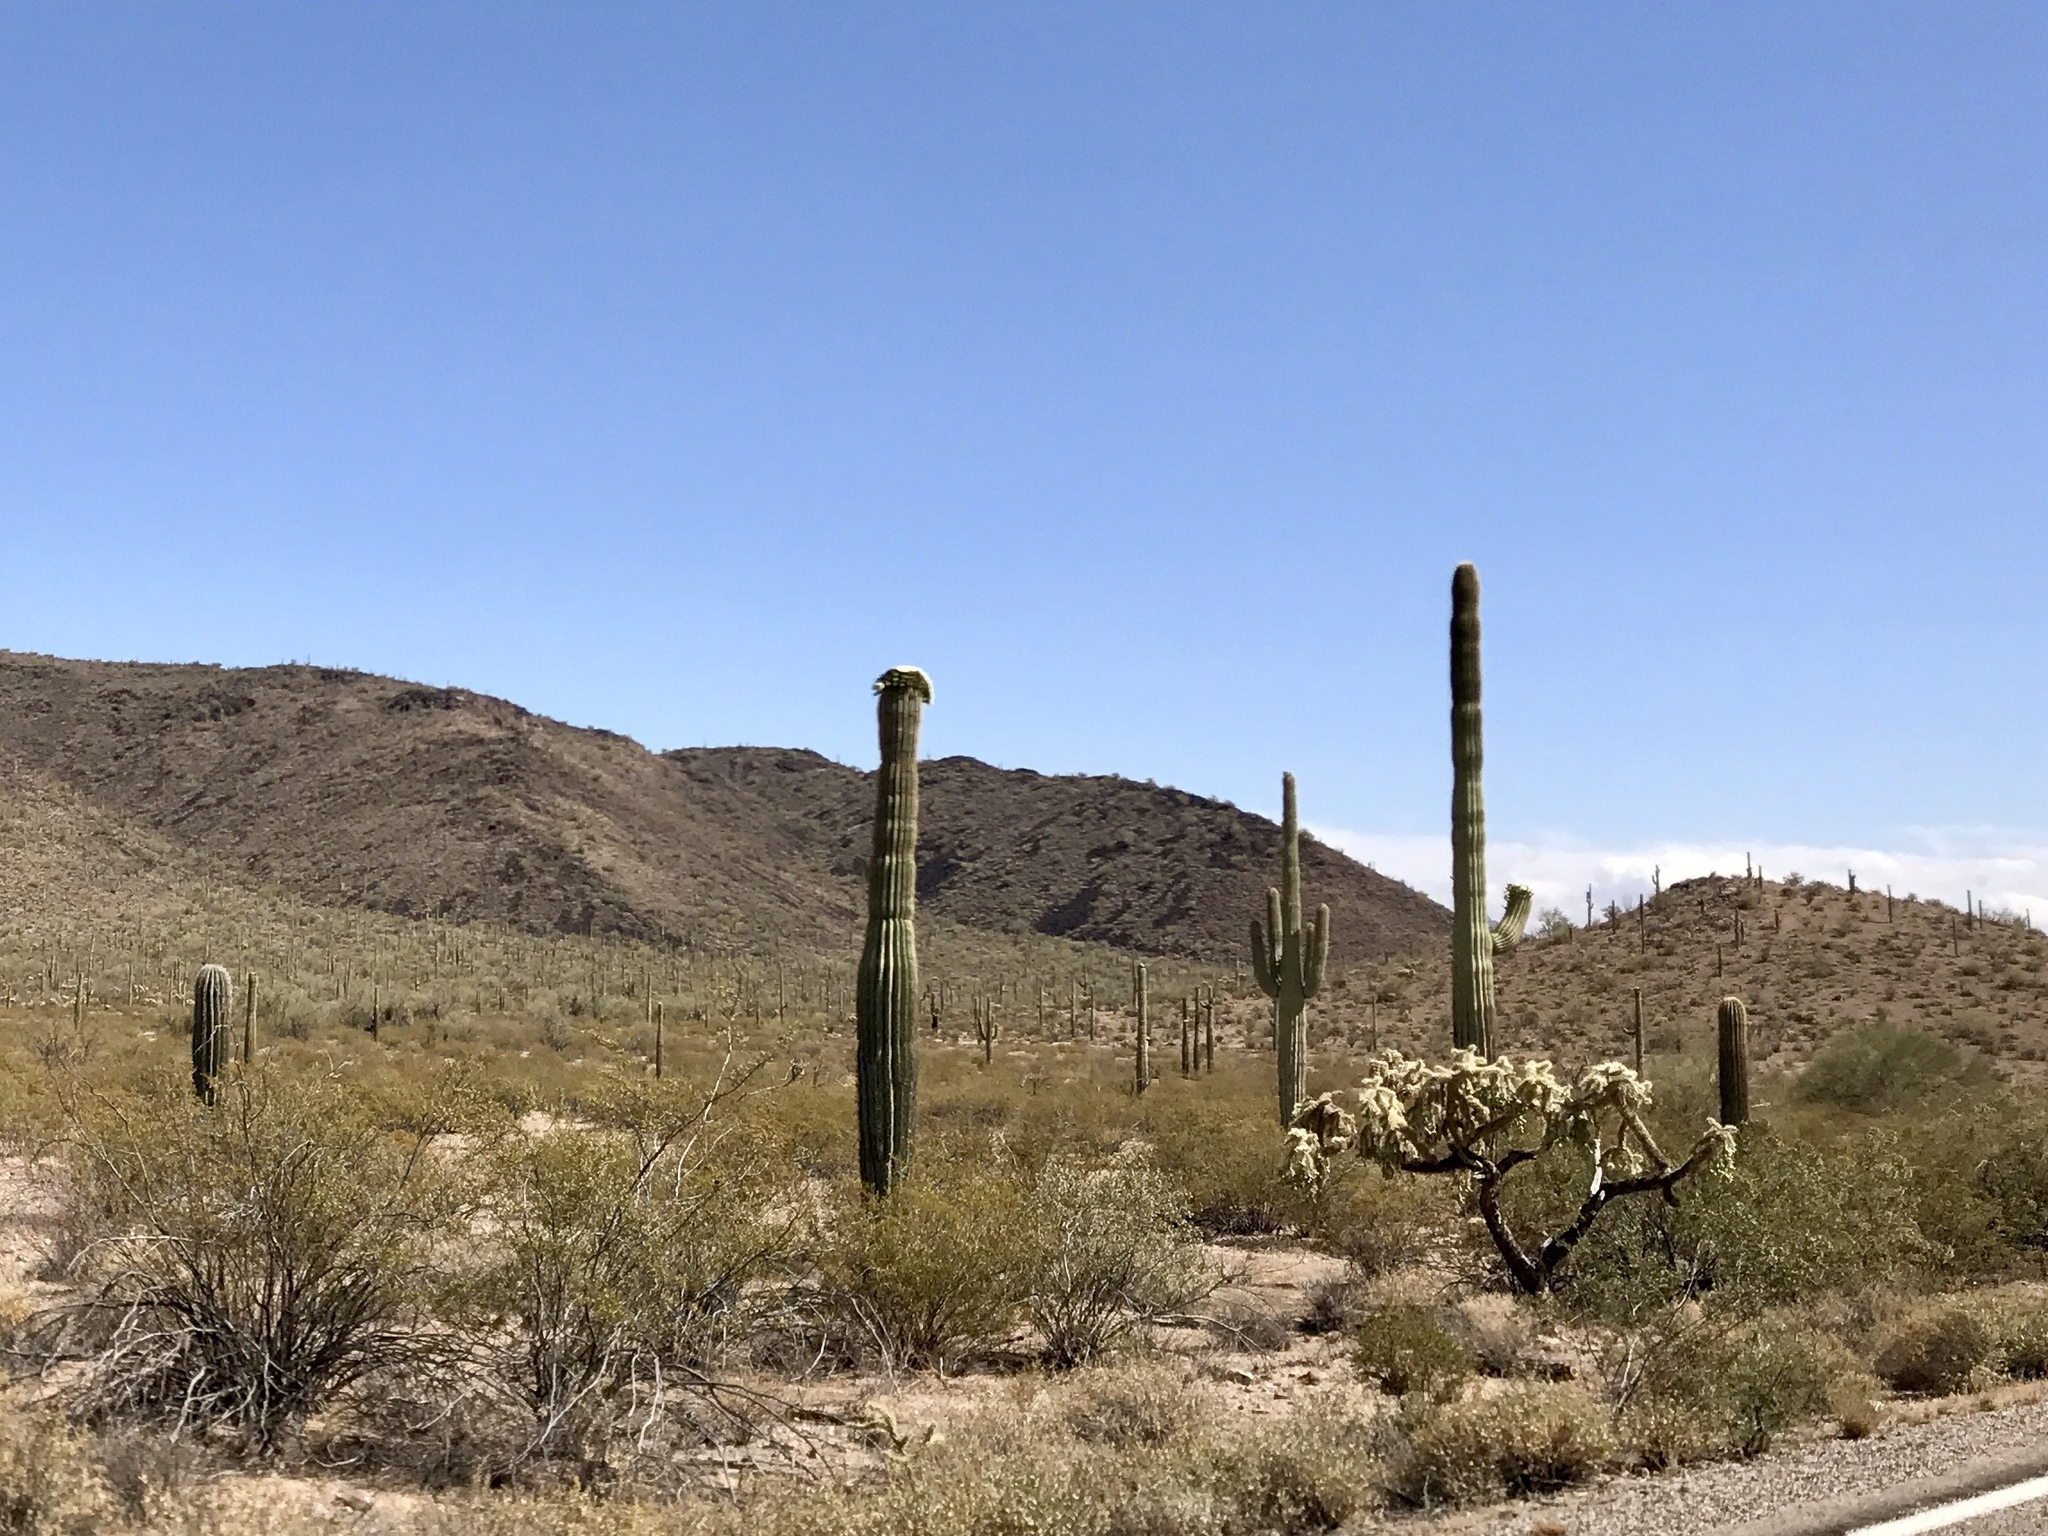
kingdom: Plantae
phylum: Tracheophyta
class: Magnoliopsida
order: Caryophyllales
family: Cactaceae
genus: Carnegiea
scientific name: Carnegiea gigantea
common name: Saguaro
